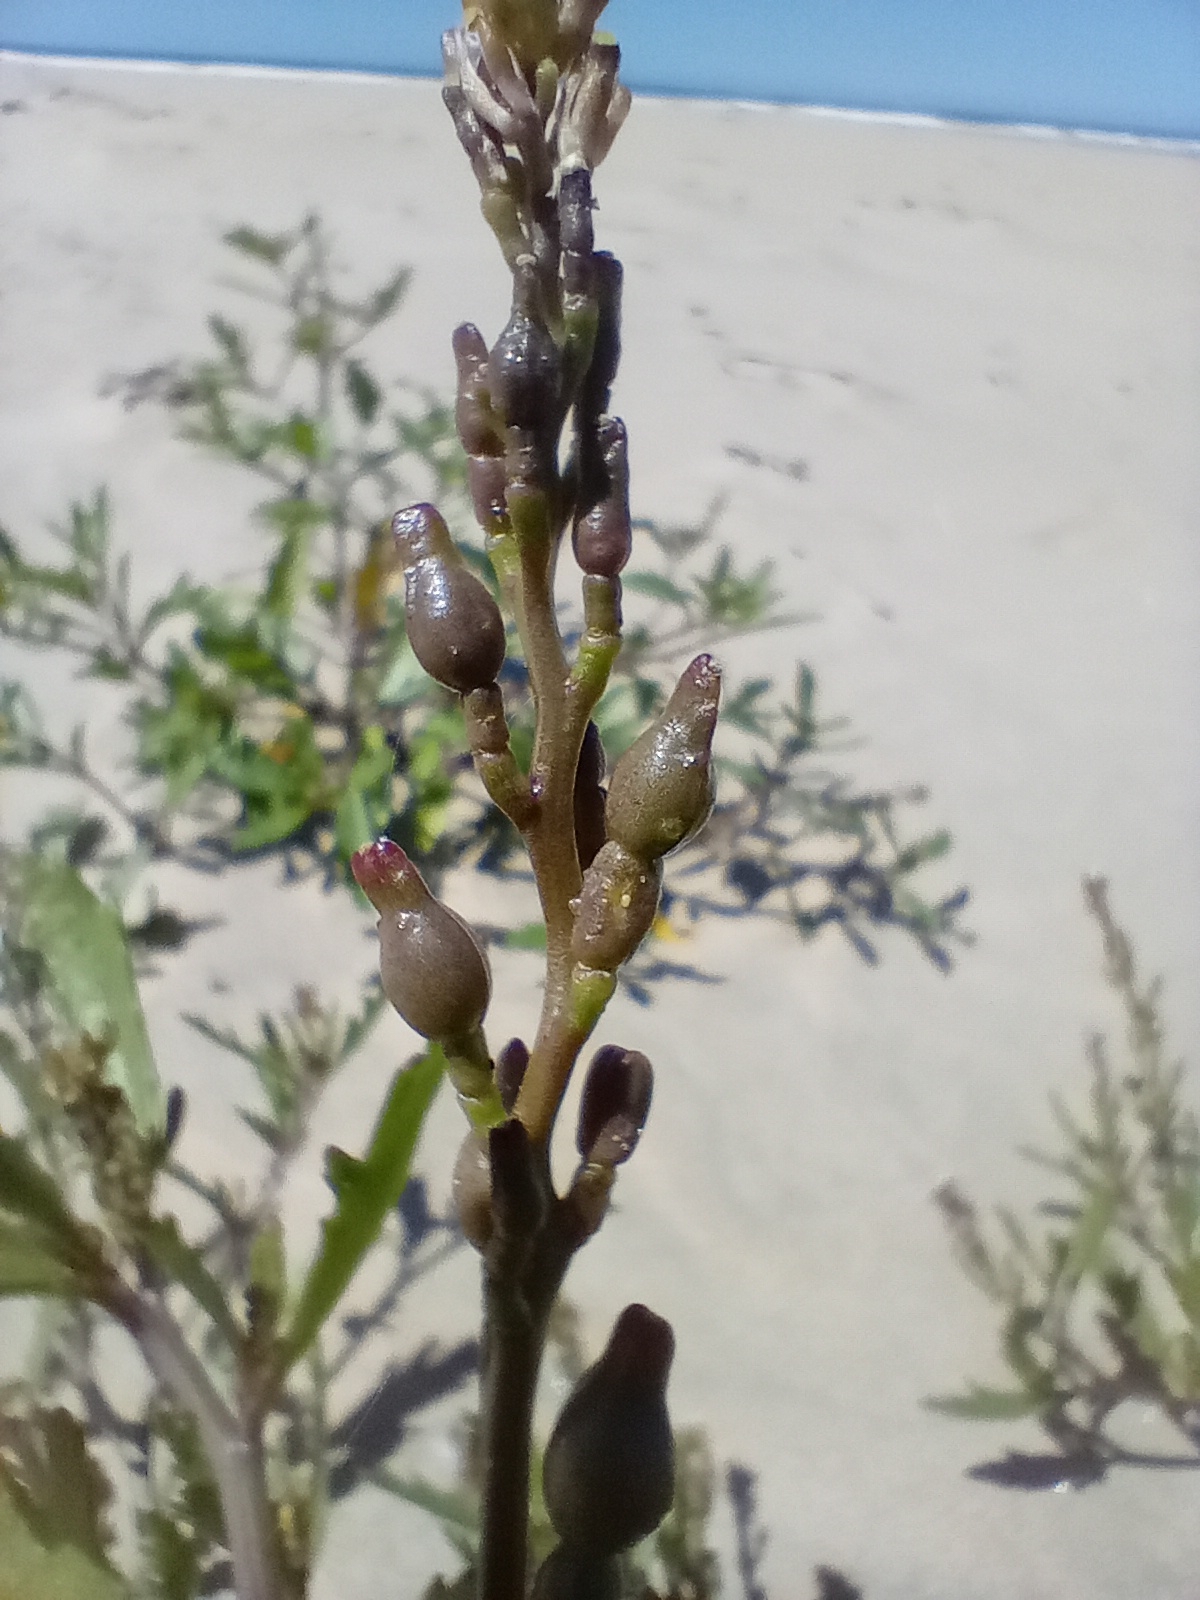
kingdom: Plantae
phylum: Tracheophyta
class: Magnoliopsida
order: Brassicales
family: Brassicaceae
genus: Cakile
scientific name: Cakile edentula
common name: American sea rocket
